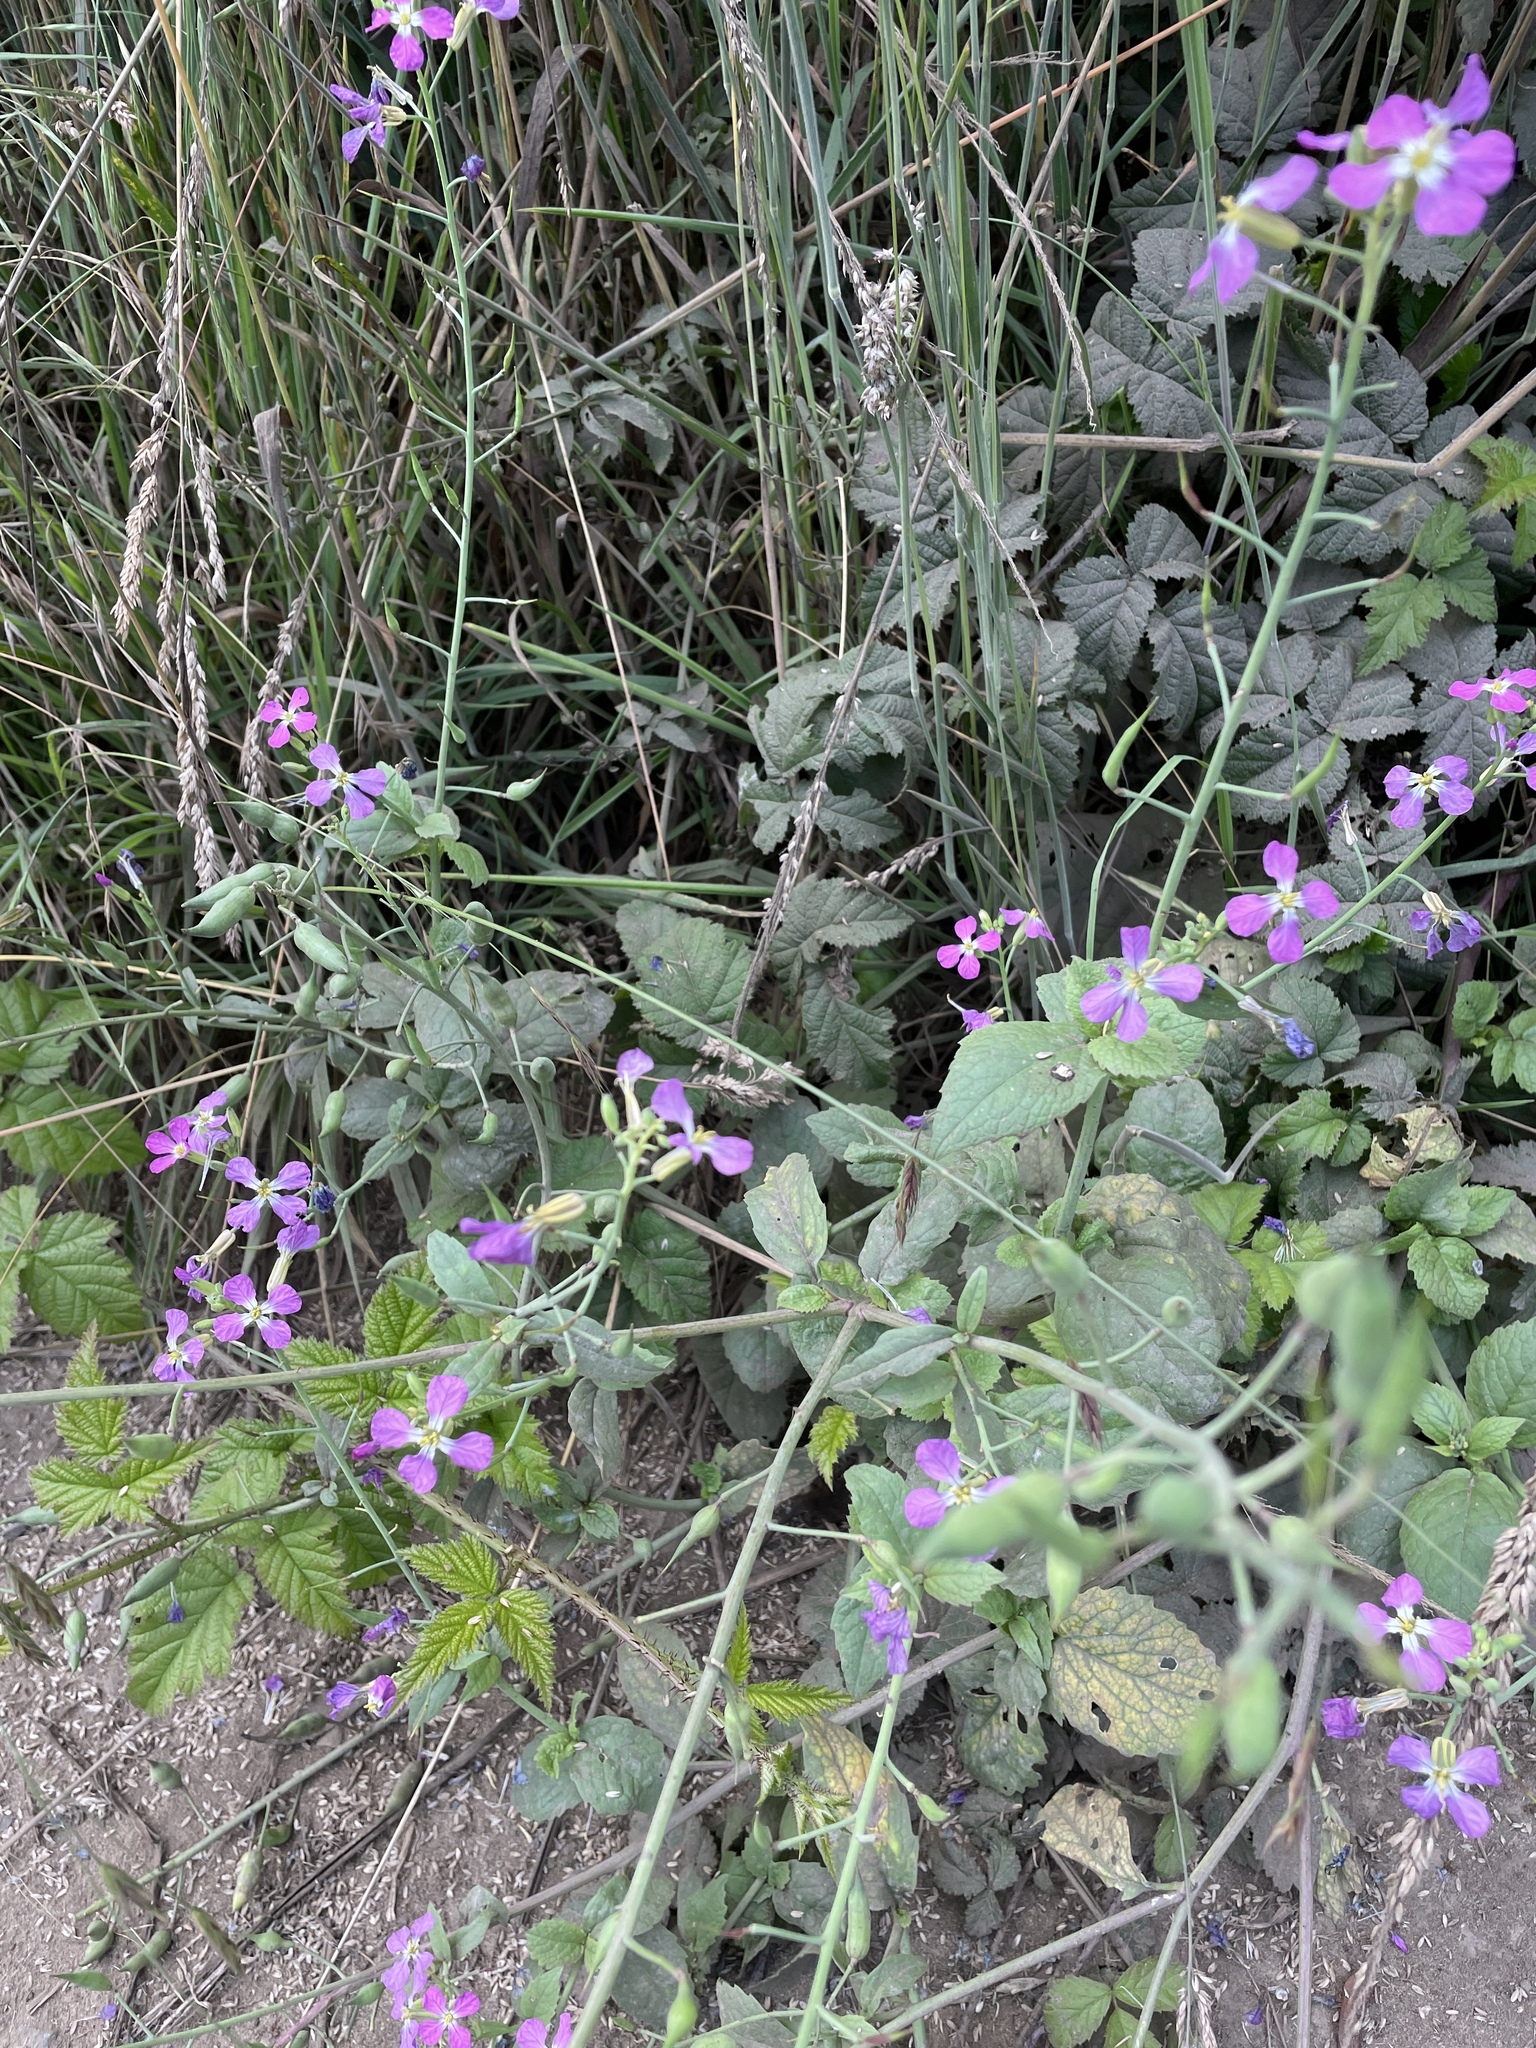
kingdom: Plantae
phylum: Tracheophyta
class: Magnoliopsida
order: Brassicales
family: Brassicaceae
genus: Raphanus
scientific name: Raphanus sativus
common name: Cultivated radish
